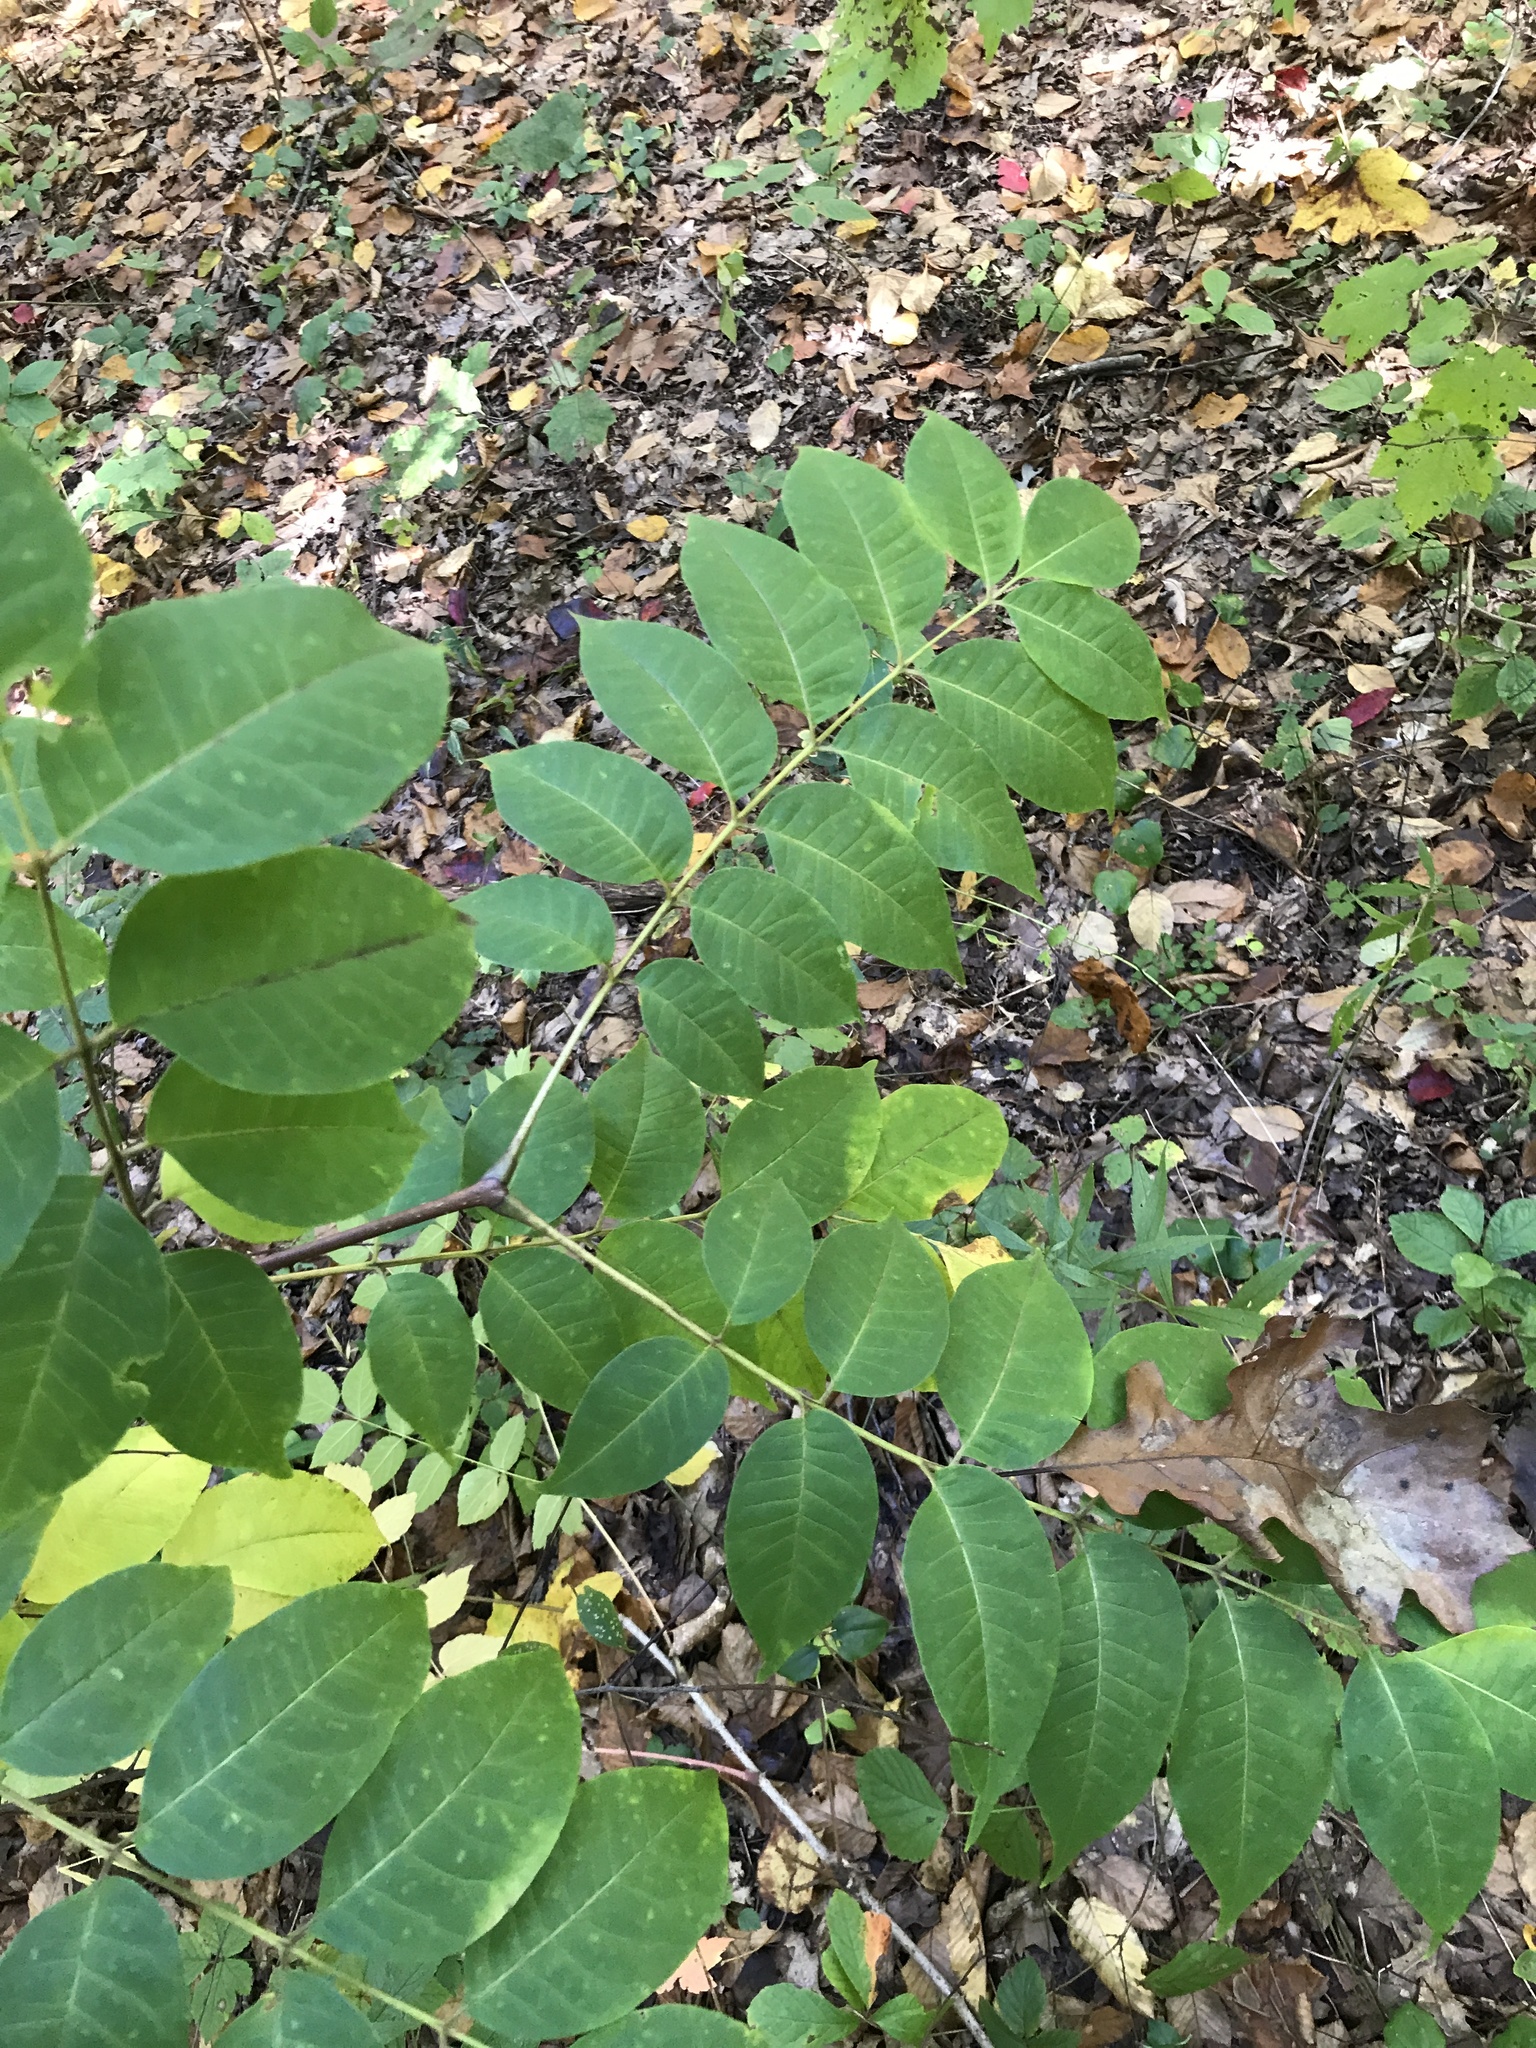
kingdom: Plantae
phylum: Tracheophyta
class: Magnoliopsida
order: Sapindales
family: Rutaceae
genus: Phellodendron
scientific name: Phellodendron amurense
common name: Amur corktree
